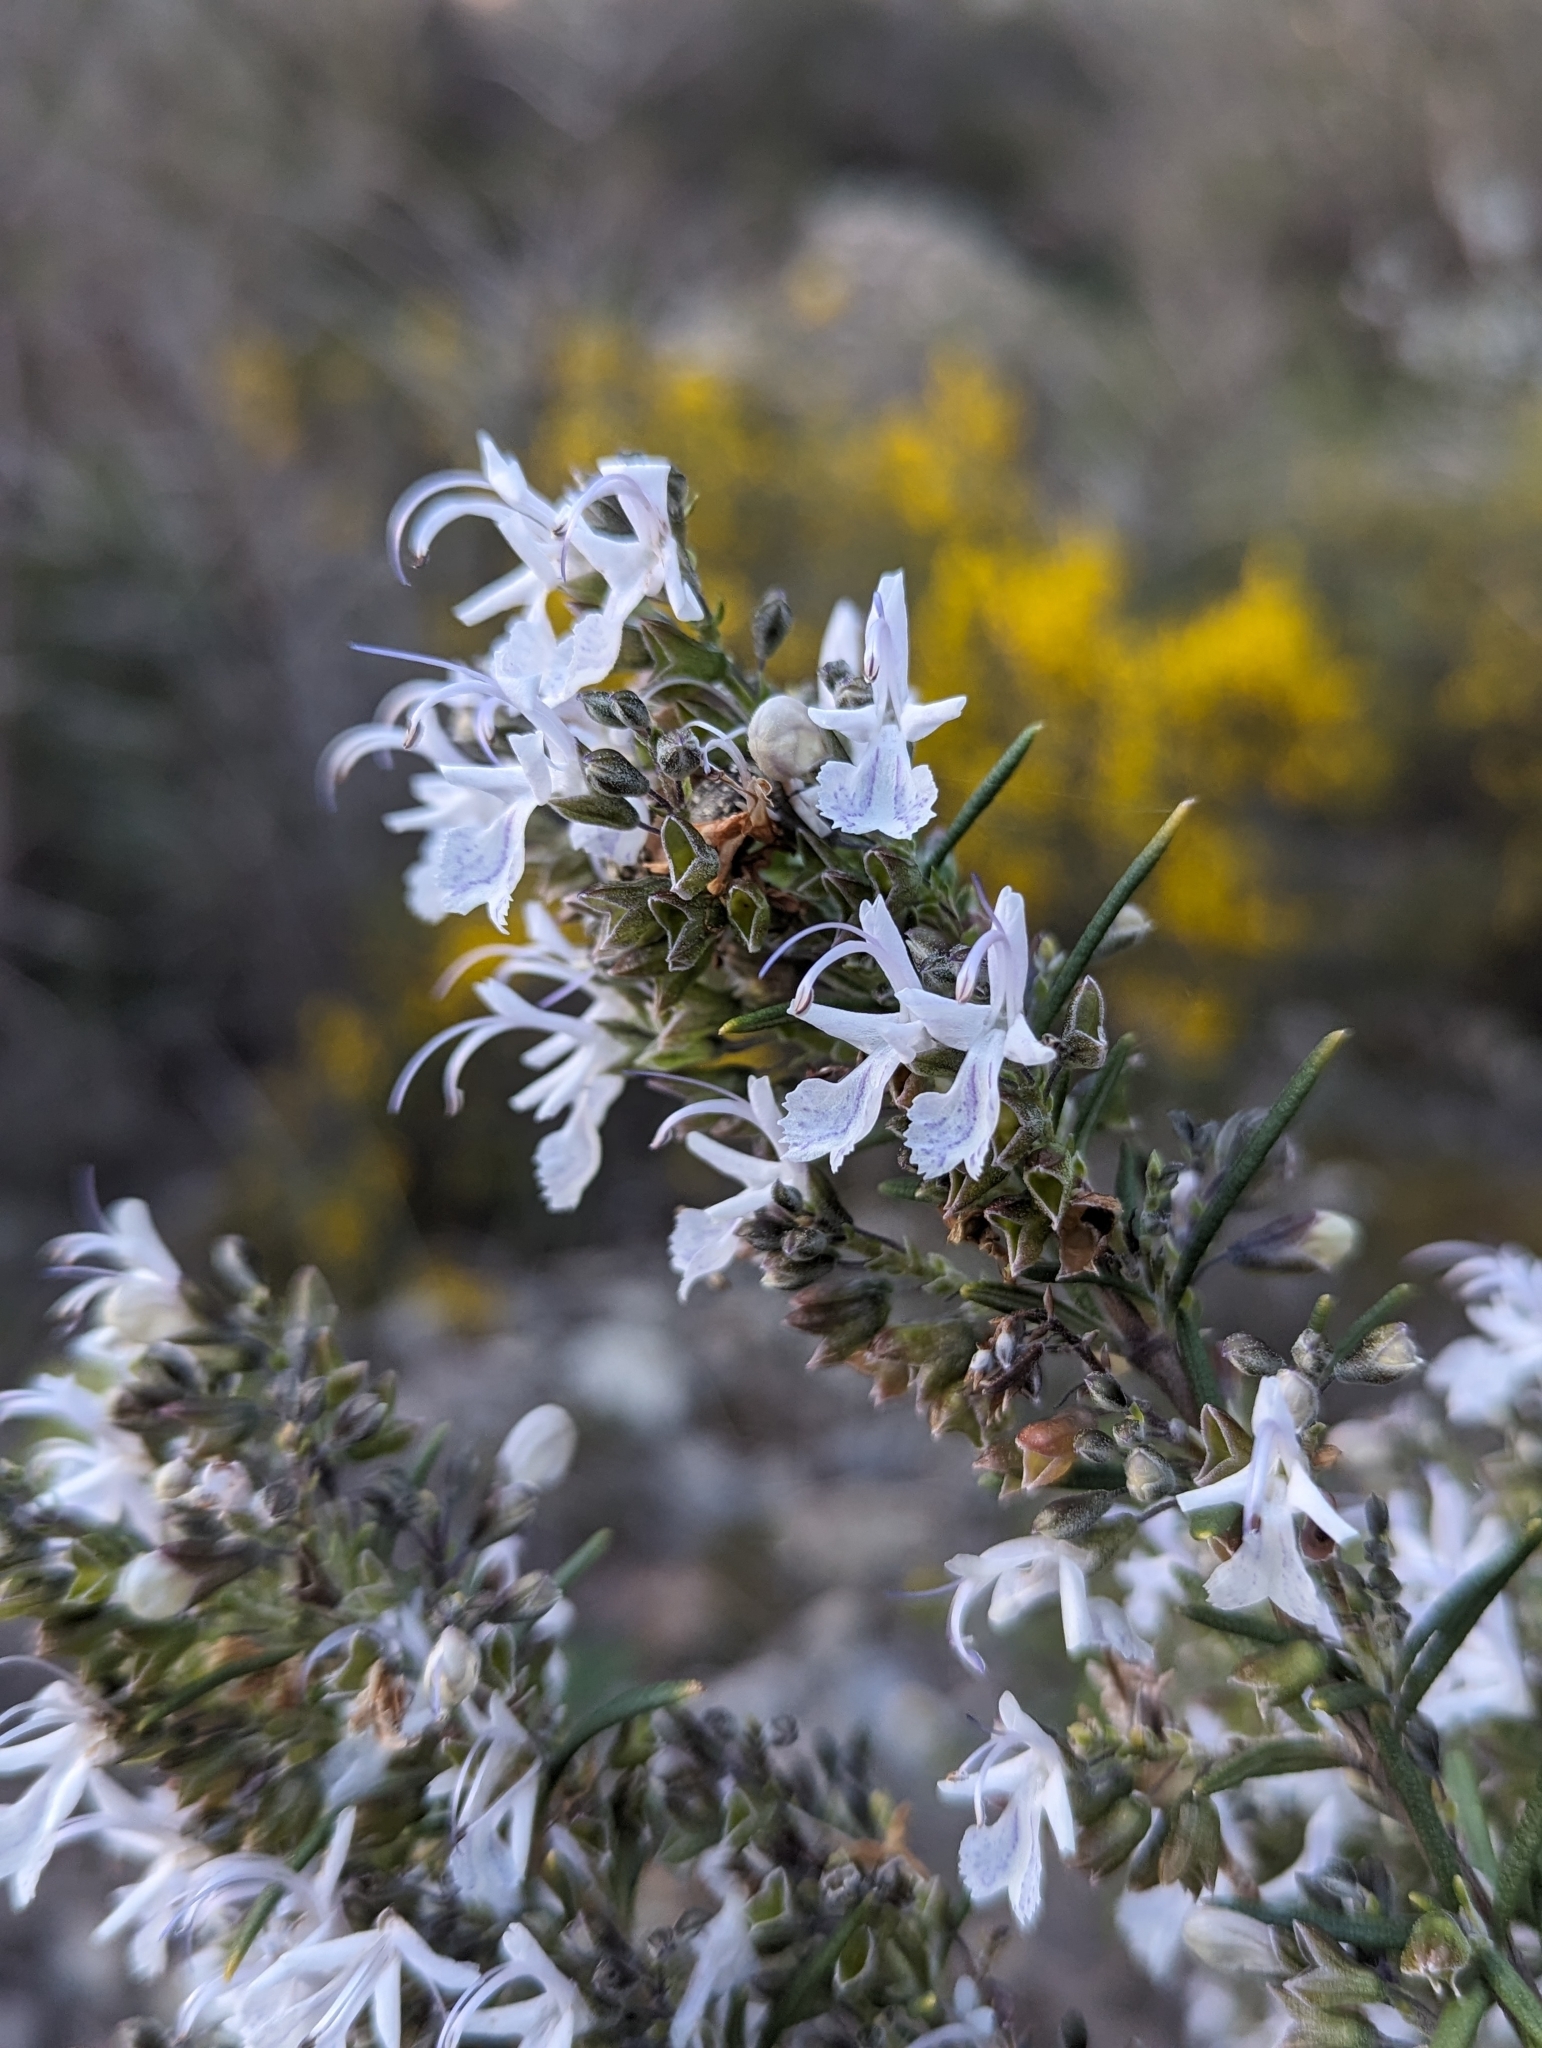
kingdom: Plantae
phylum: Tracheophyta
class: Magnoliopsida
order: Lamiales
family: Lamiaceae
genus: Salvia
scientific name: Salvia rosmarinus
